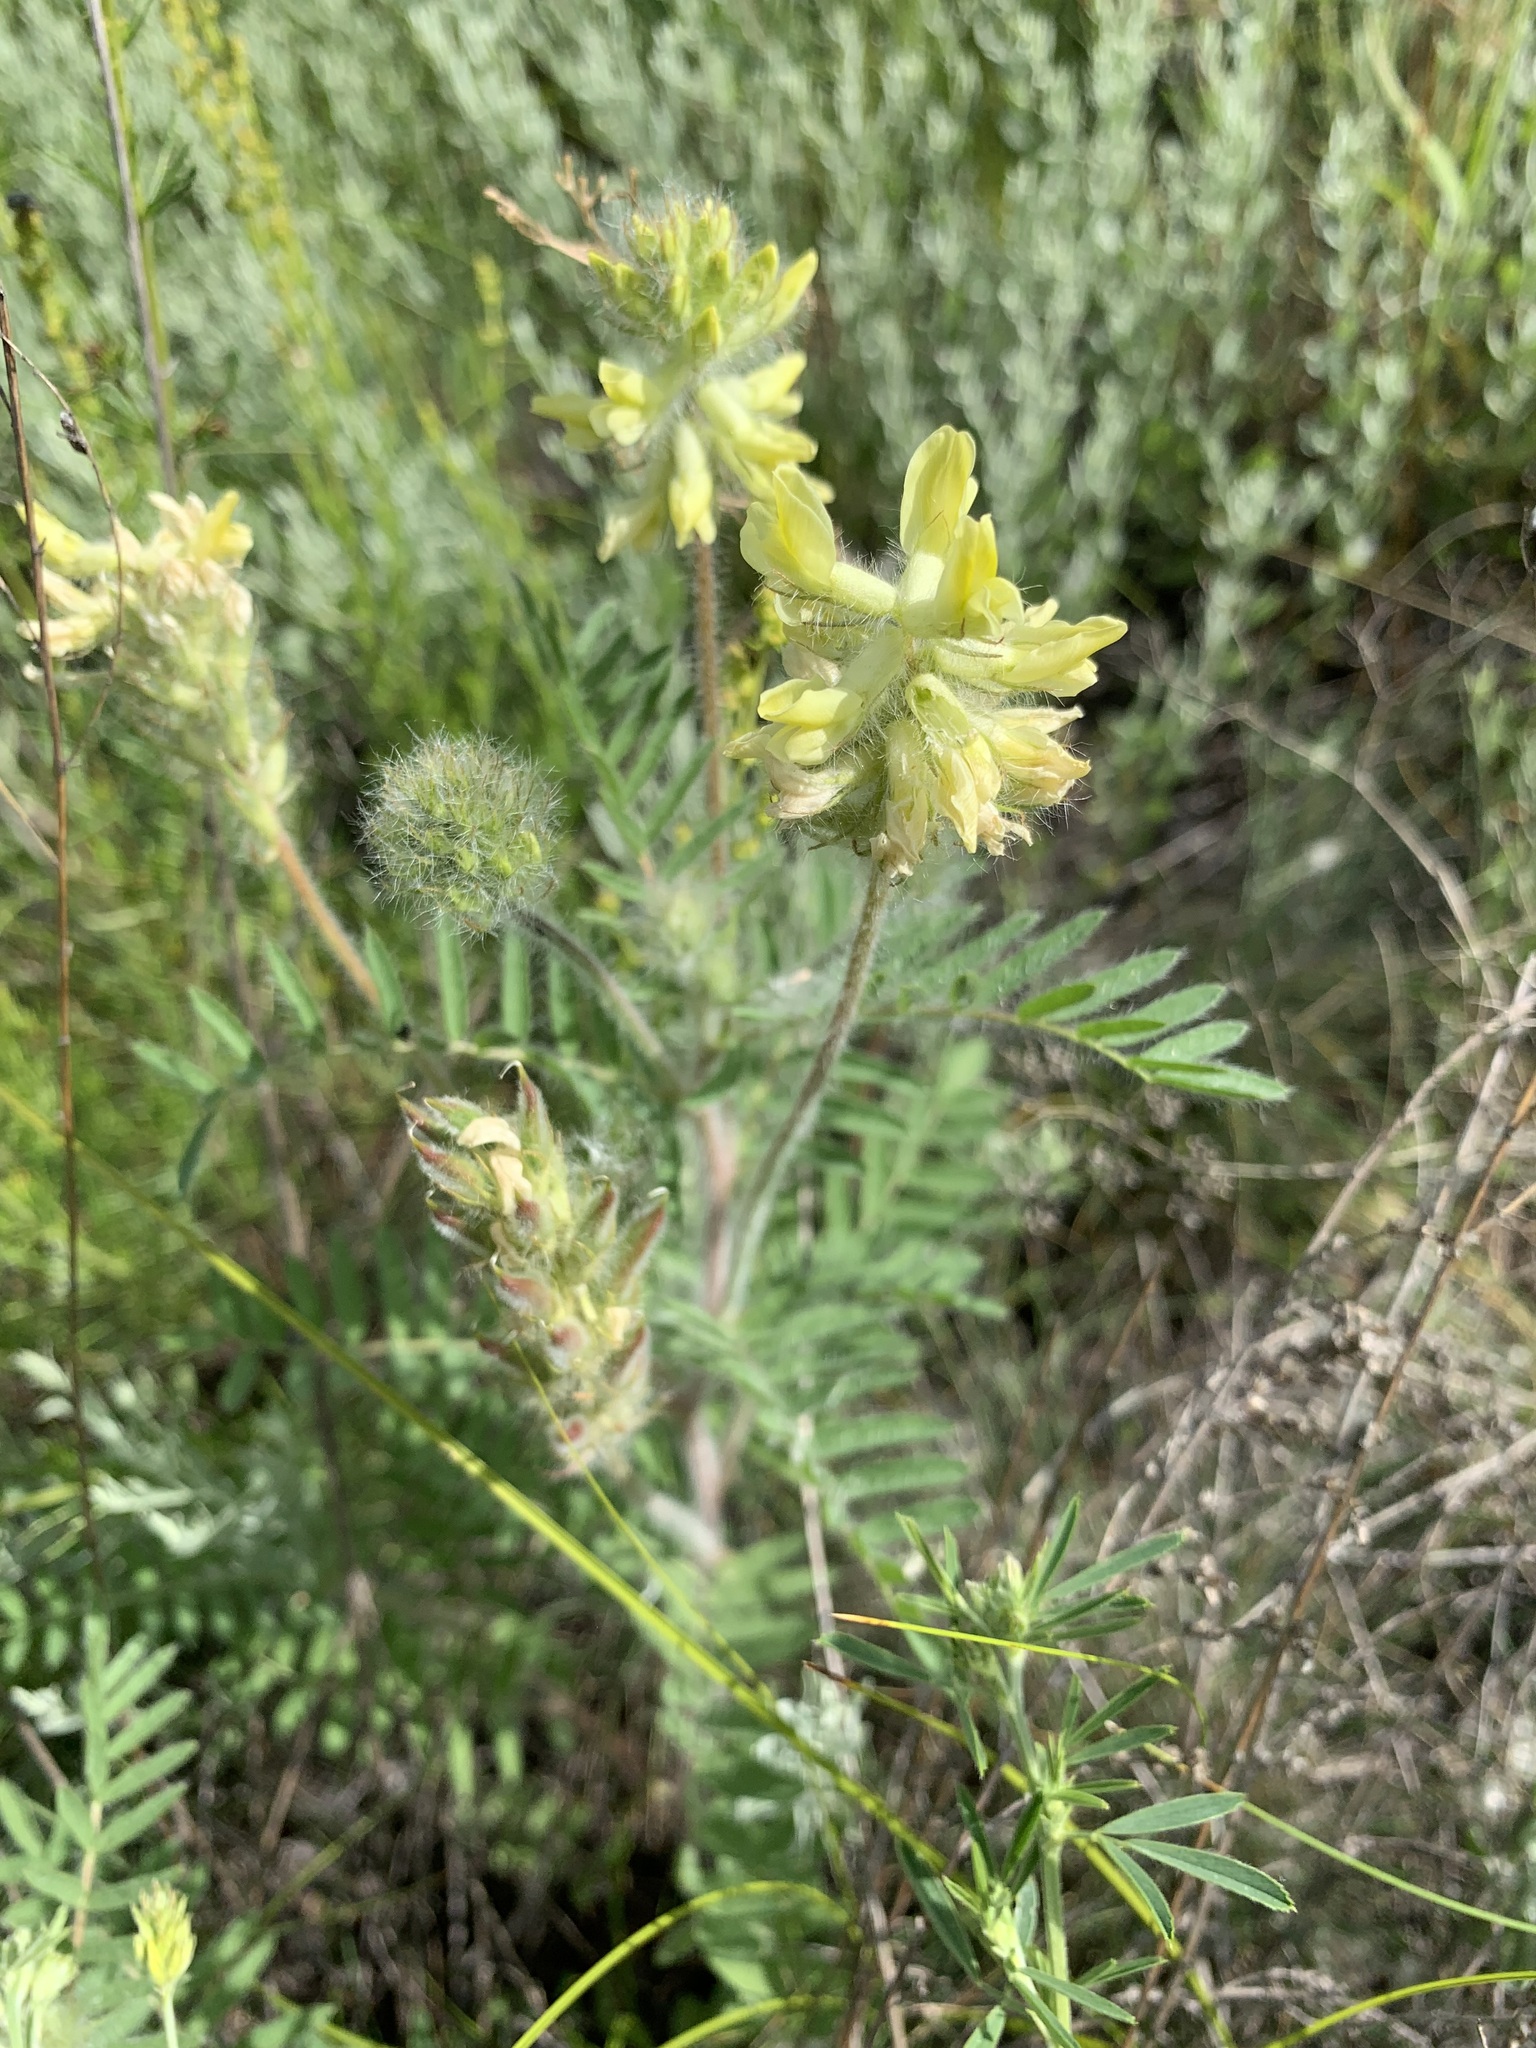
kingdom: Plantae
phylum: Tracheophyta
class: Magnoliopsida
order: Fabales
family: Fabaceae
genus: Oxytropis
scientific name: Oxytropis pilosa
